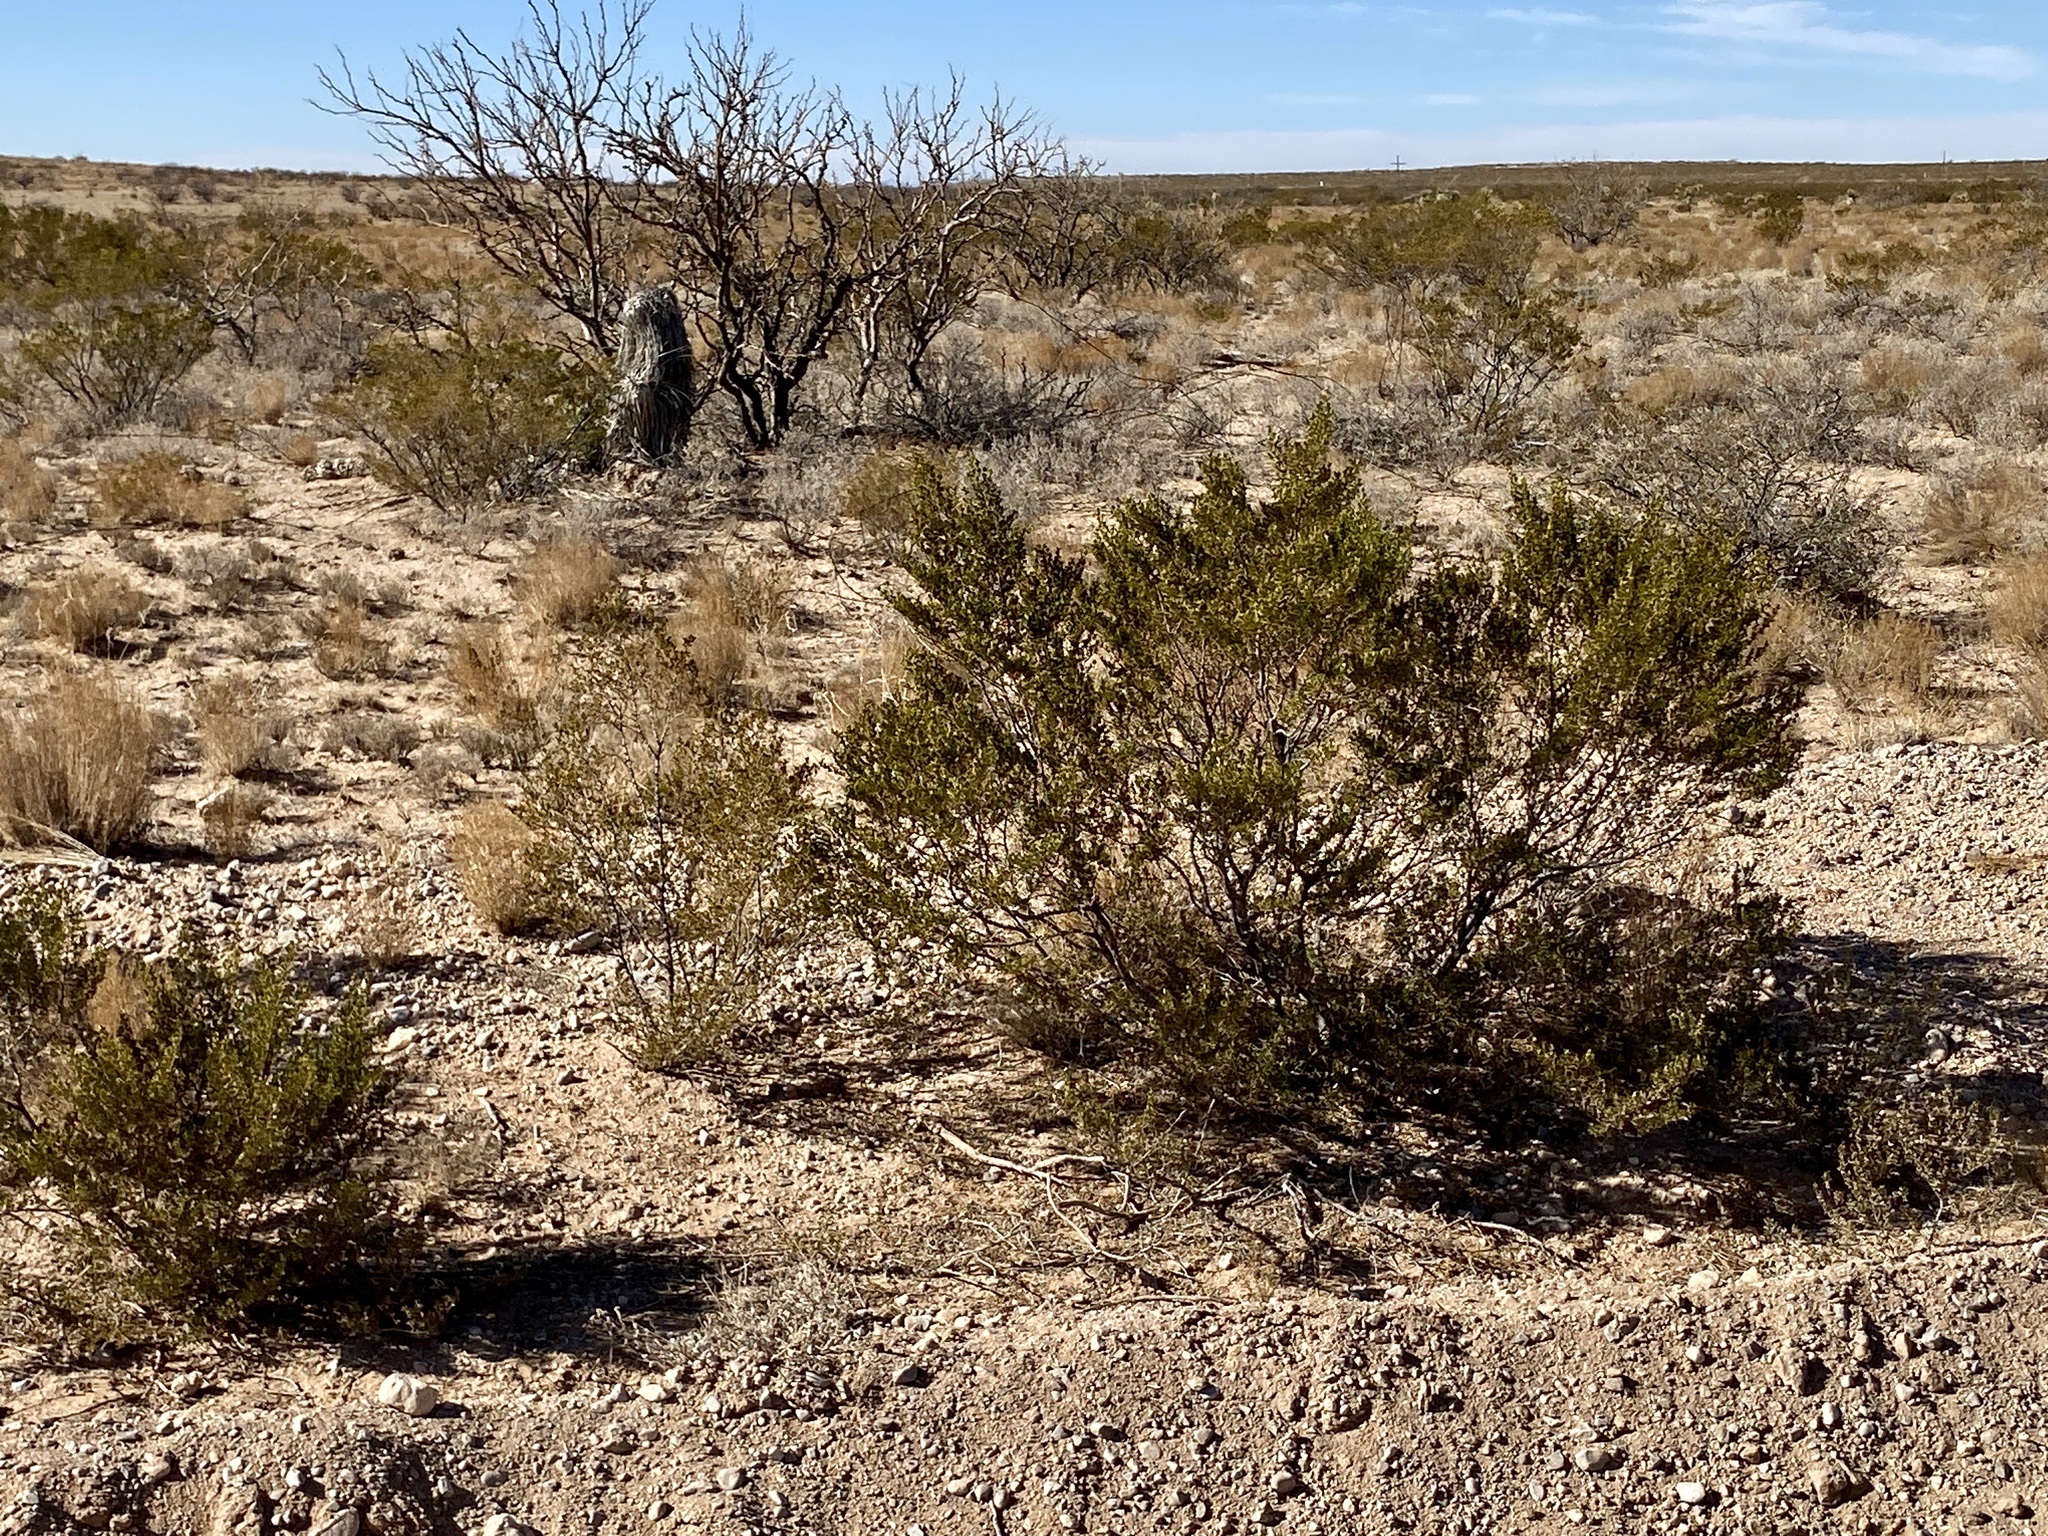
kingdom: Plantae
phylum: Tracheophyta
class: Magnoliopsida
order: Zygophyllales
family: Zygophyllaceae
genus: Larrea
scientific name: Larrea tridentata
